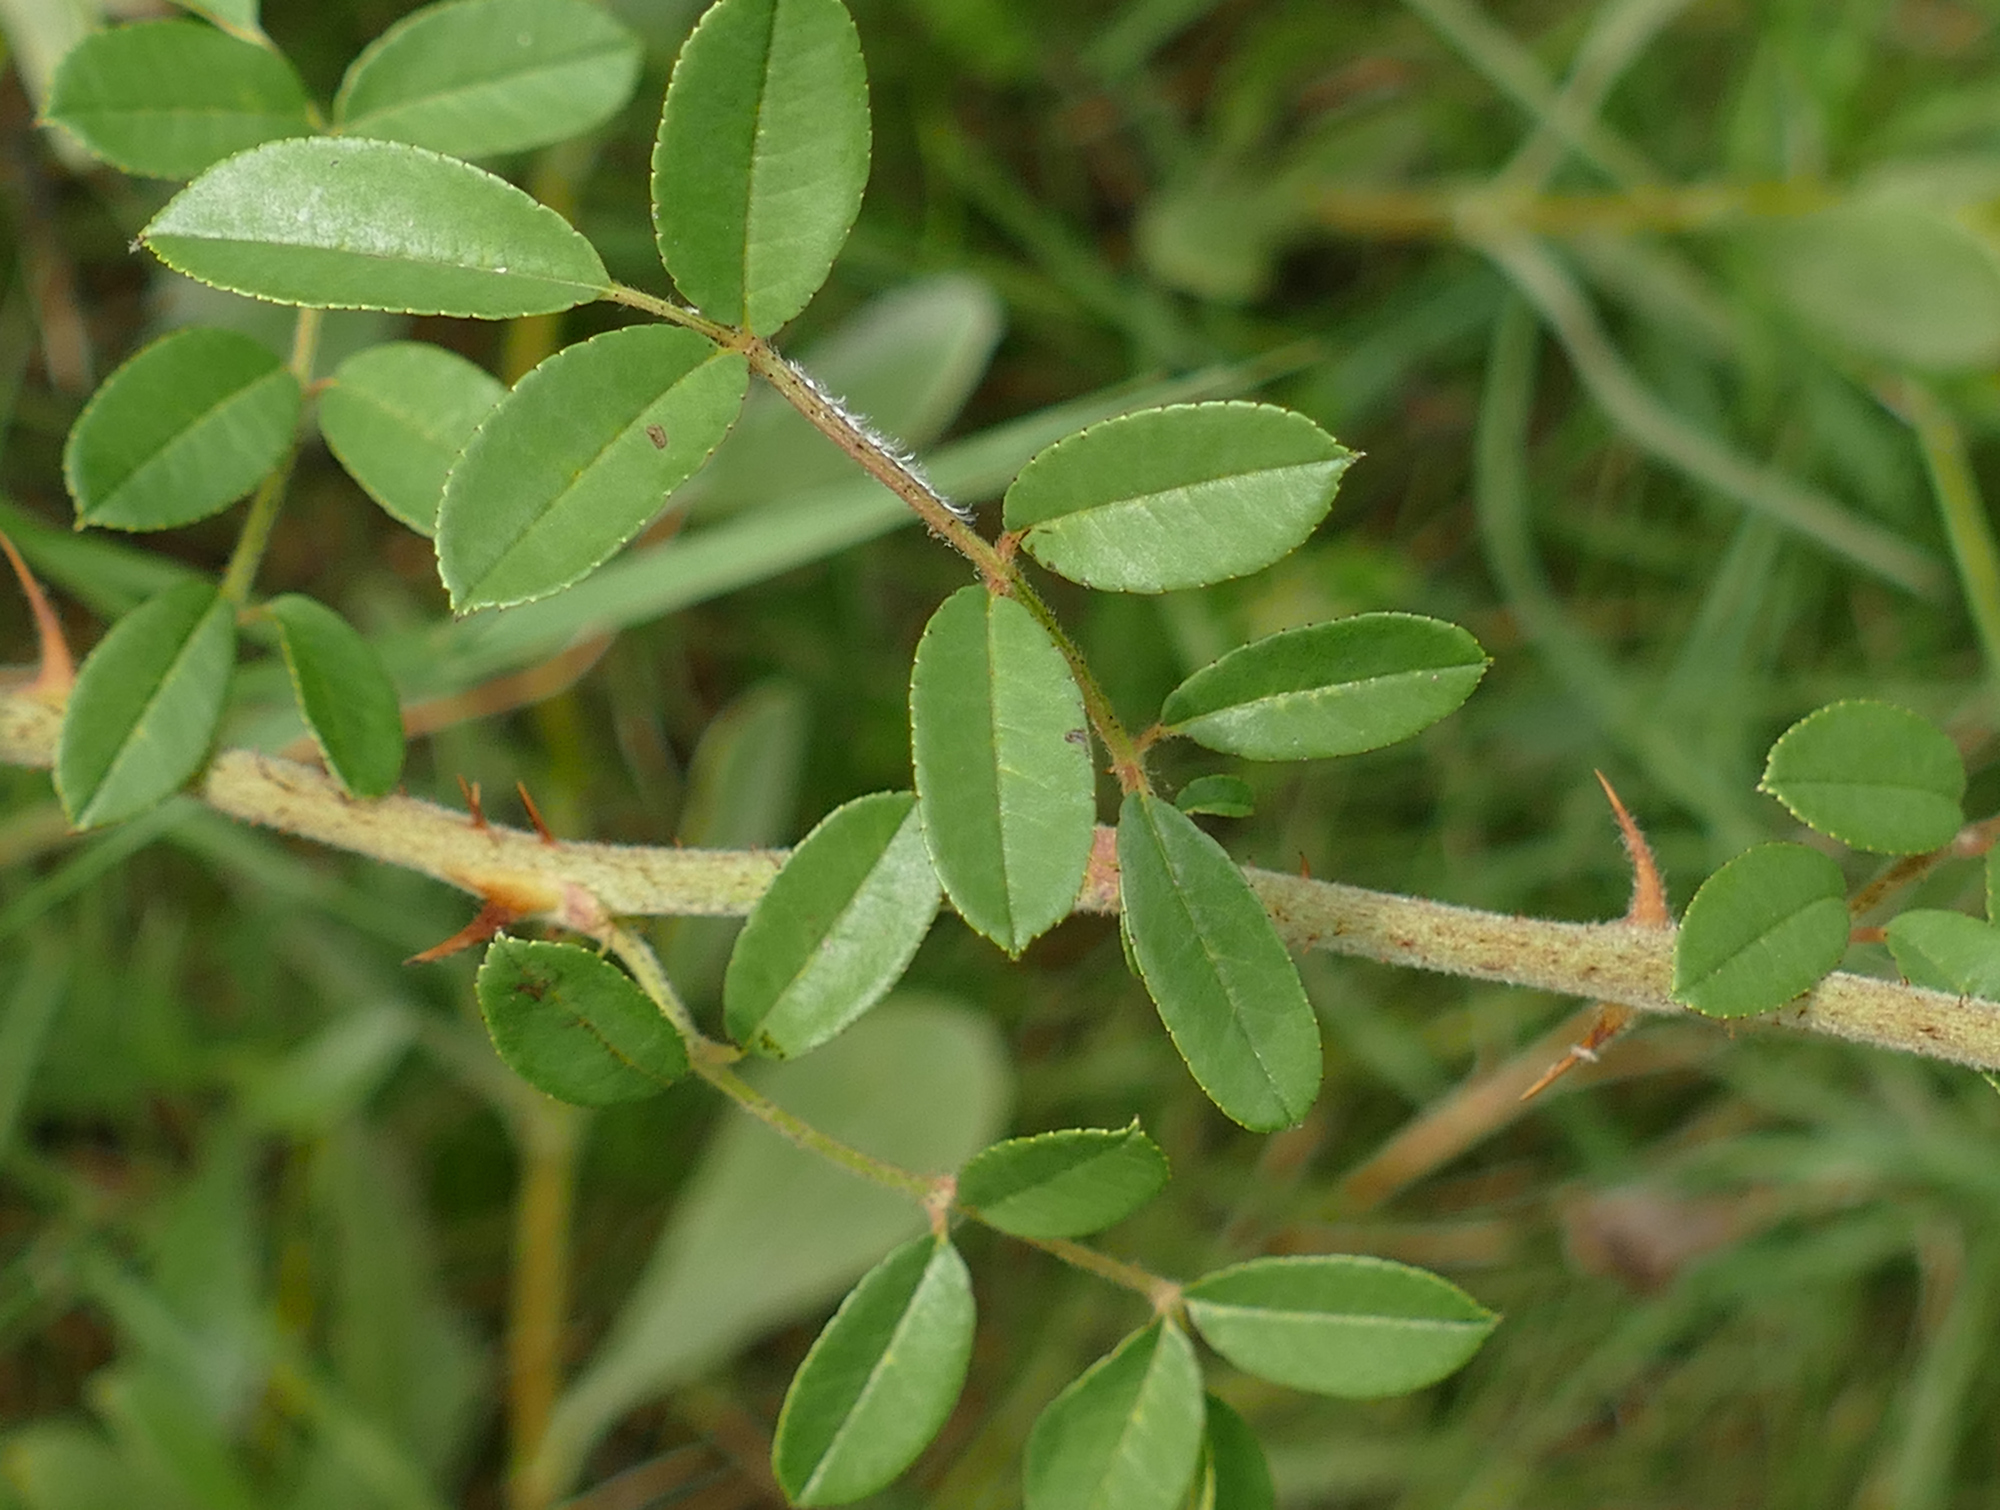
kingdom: Plantae
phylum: Tracheophyta
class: Magnoliopsida
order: Rosales
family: Rosaceae
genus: Rosa
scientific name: Rosa bracteata
